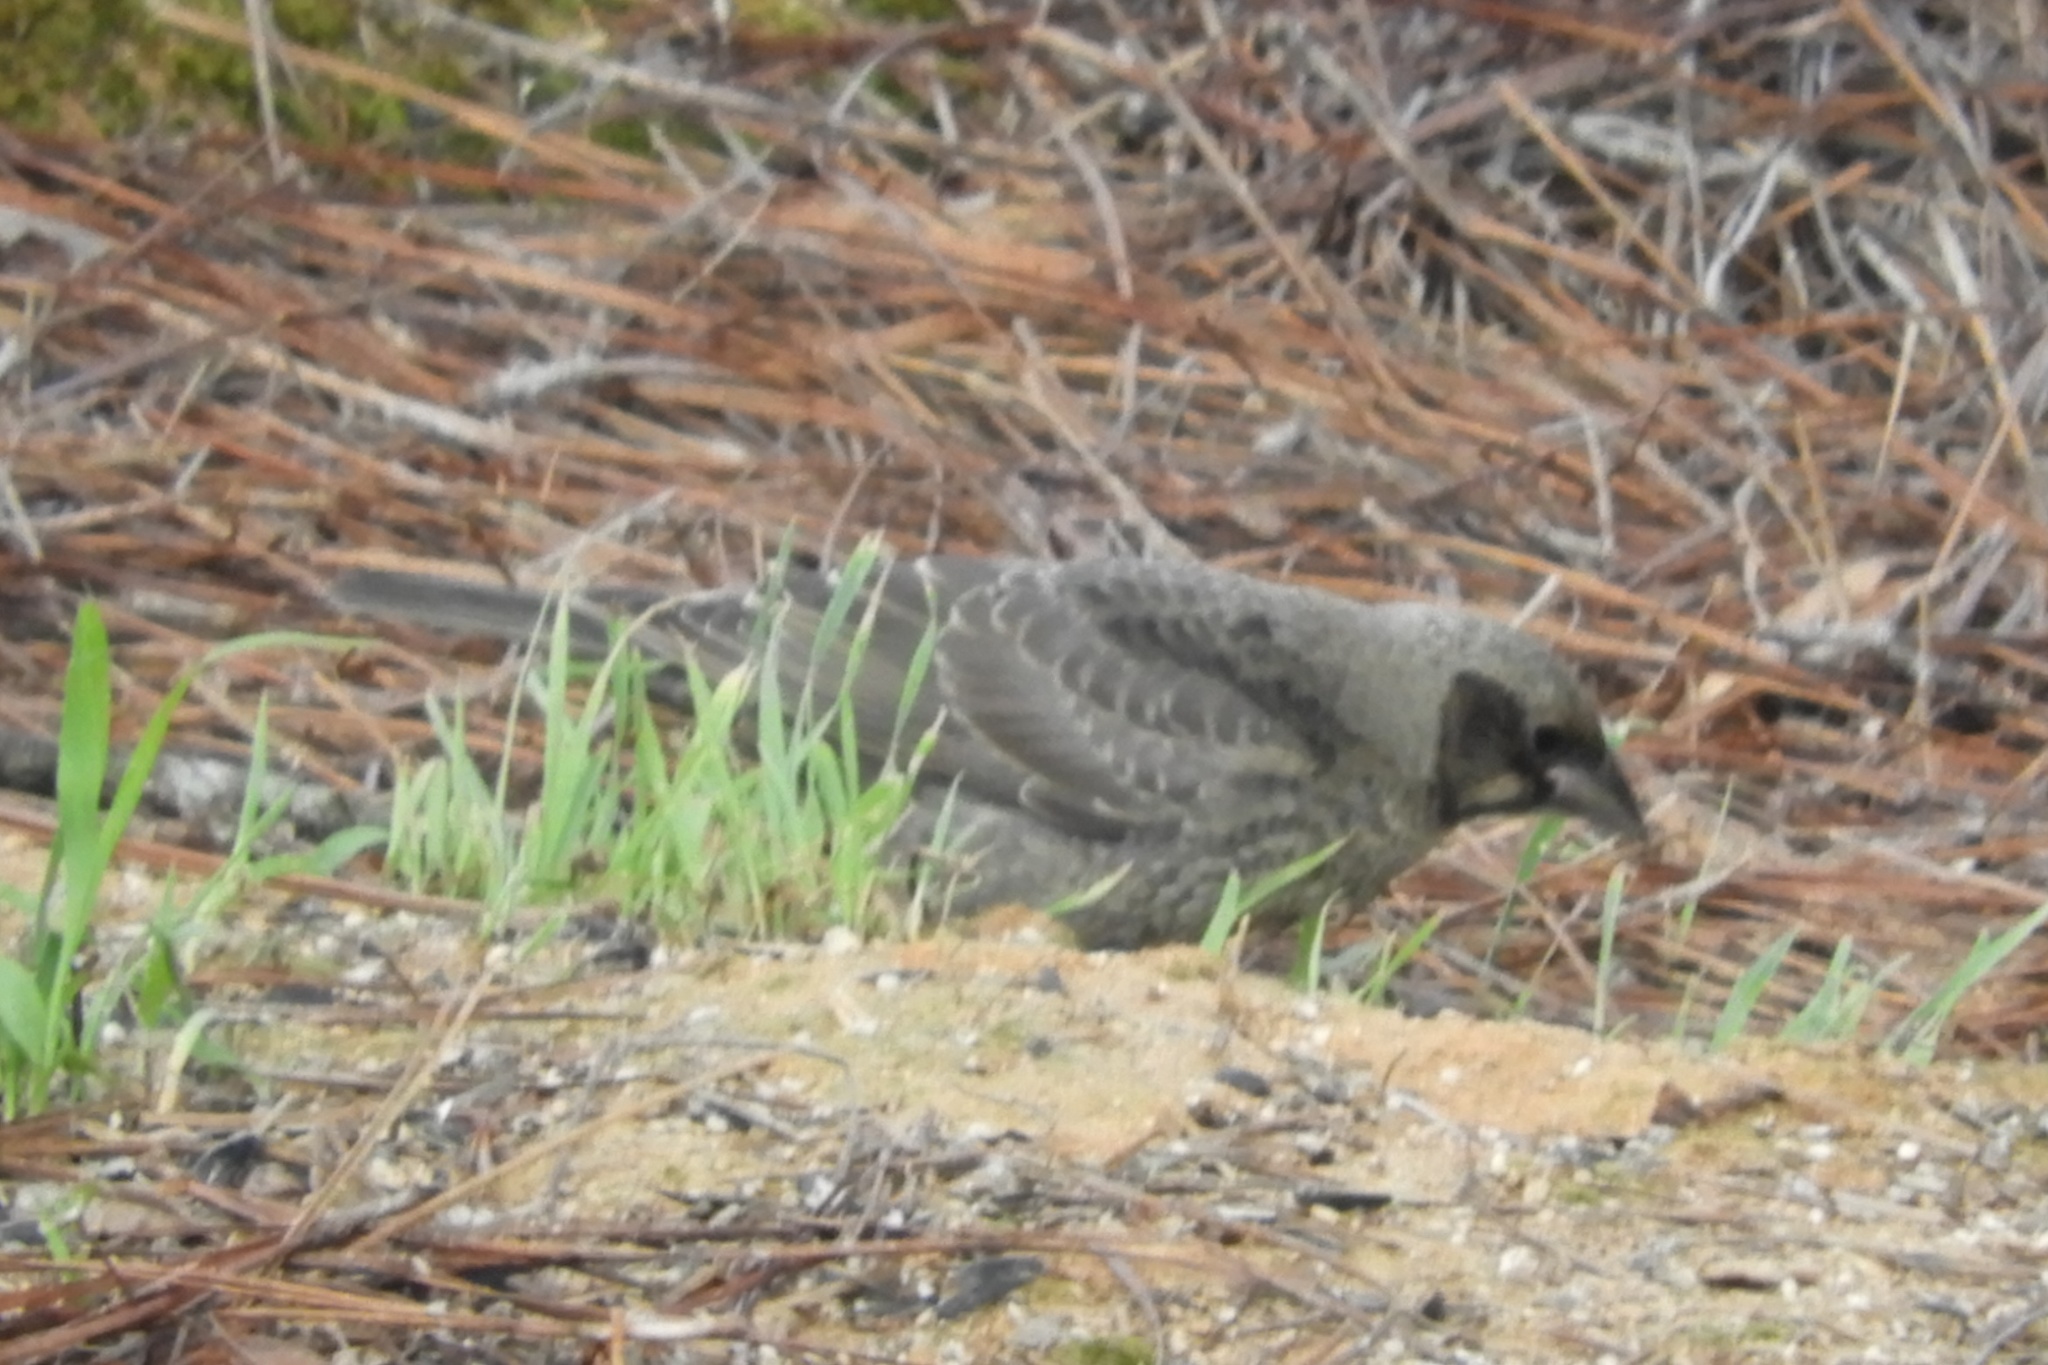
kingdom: Animalia
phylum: Chordata
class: Aves
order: Passeriformes
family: Icteridae
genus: Molothrus
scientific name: Molothrus ater
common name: Brown-headed cowbird
